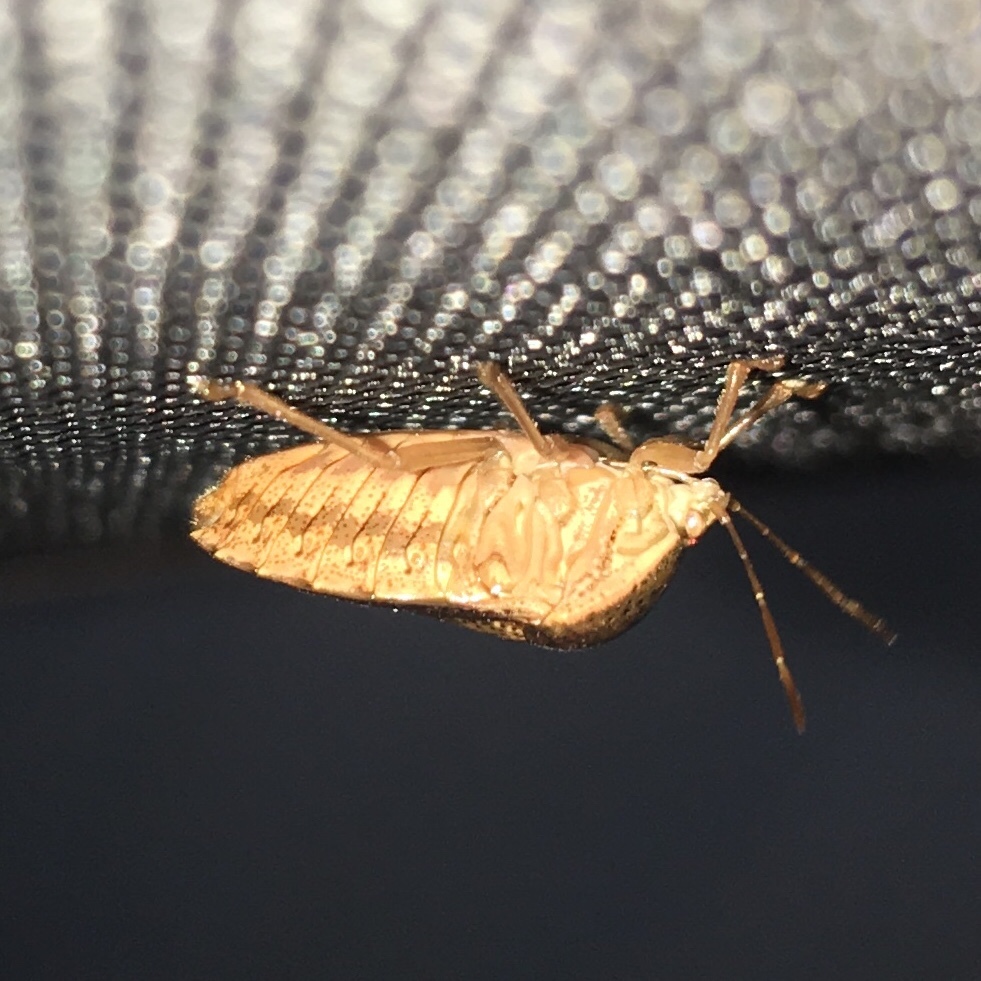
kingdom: Animalia
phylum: Arthropoda
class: Insecta
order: Hemiptera
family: Pentatomidae
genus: Edessa
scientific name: Edessa bifida
